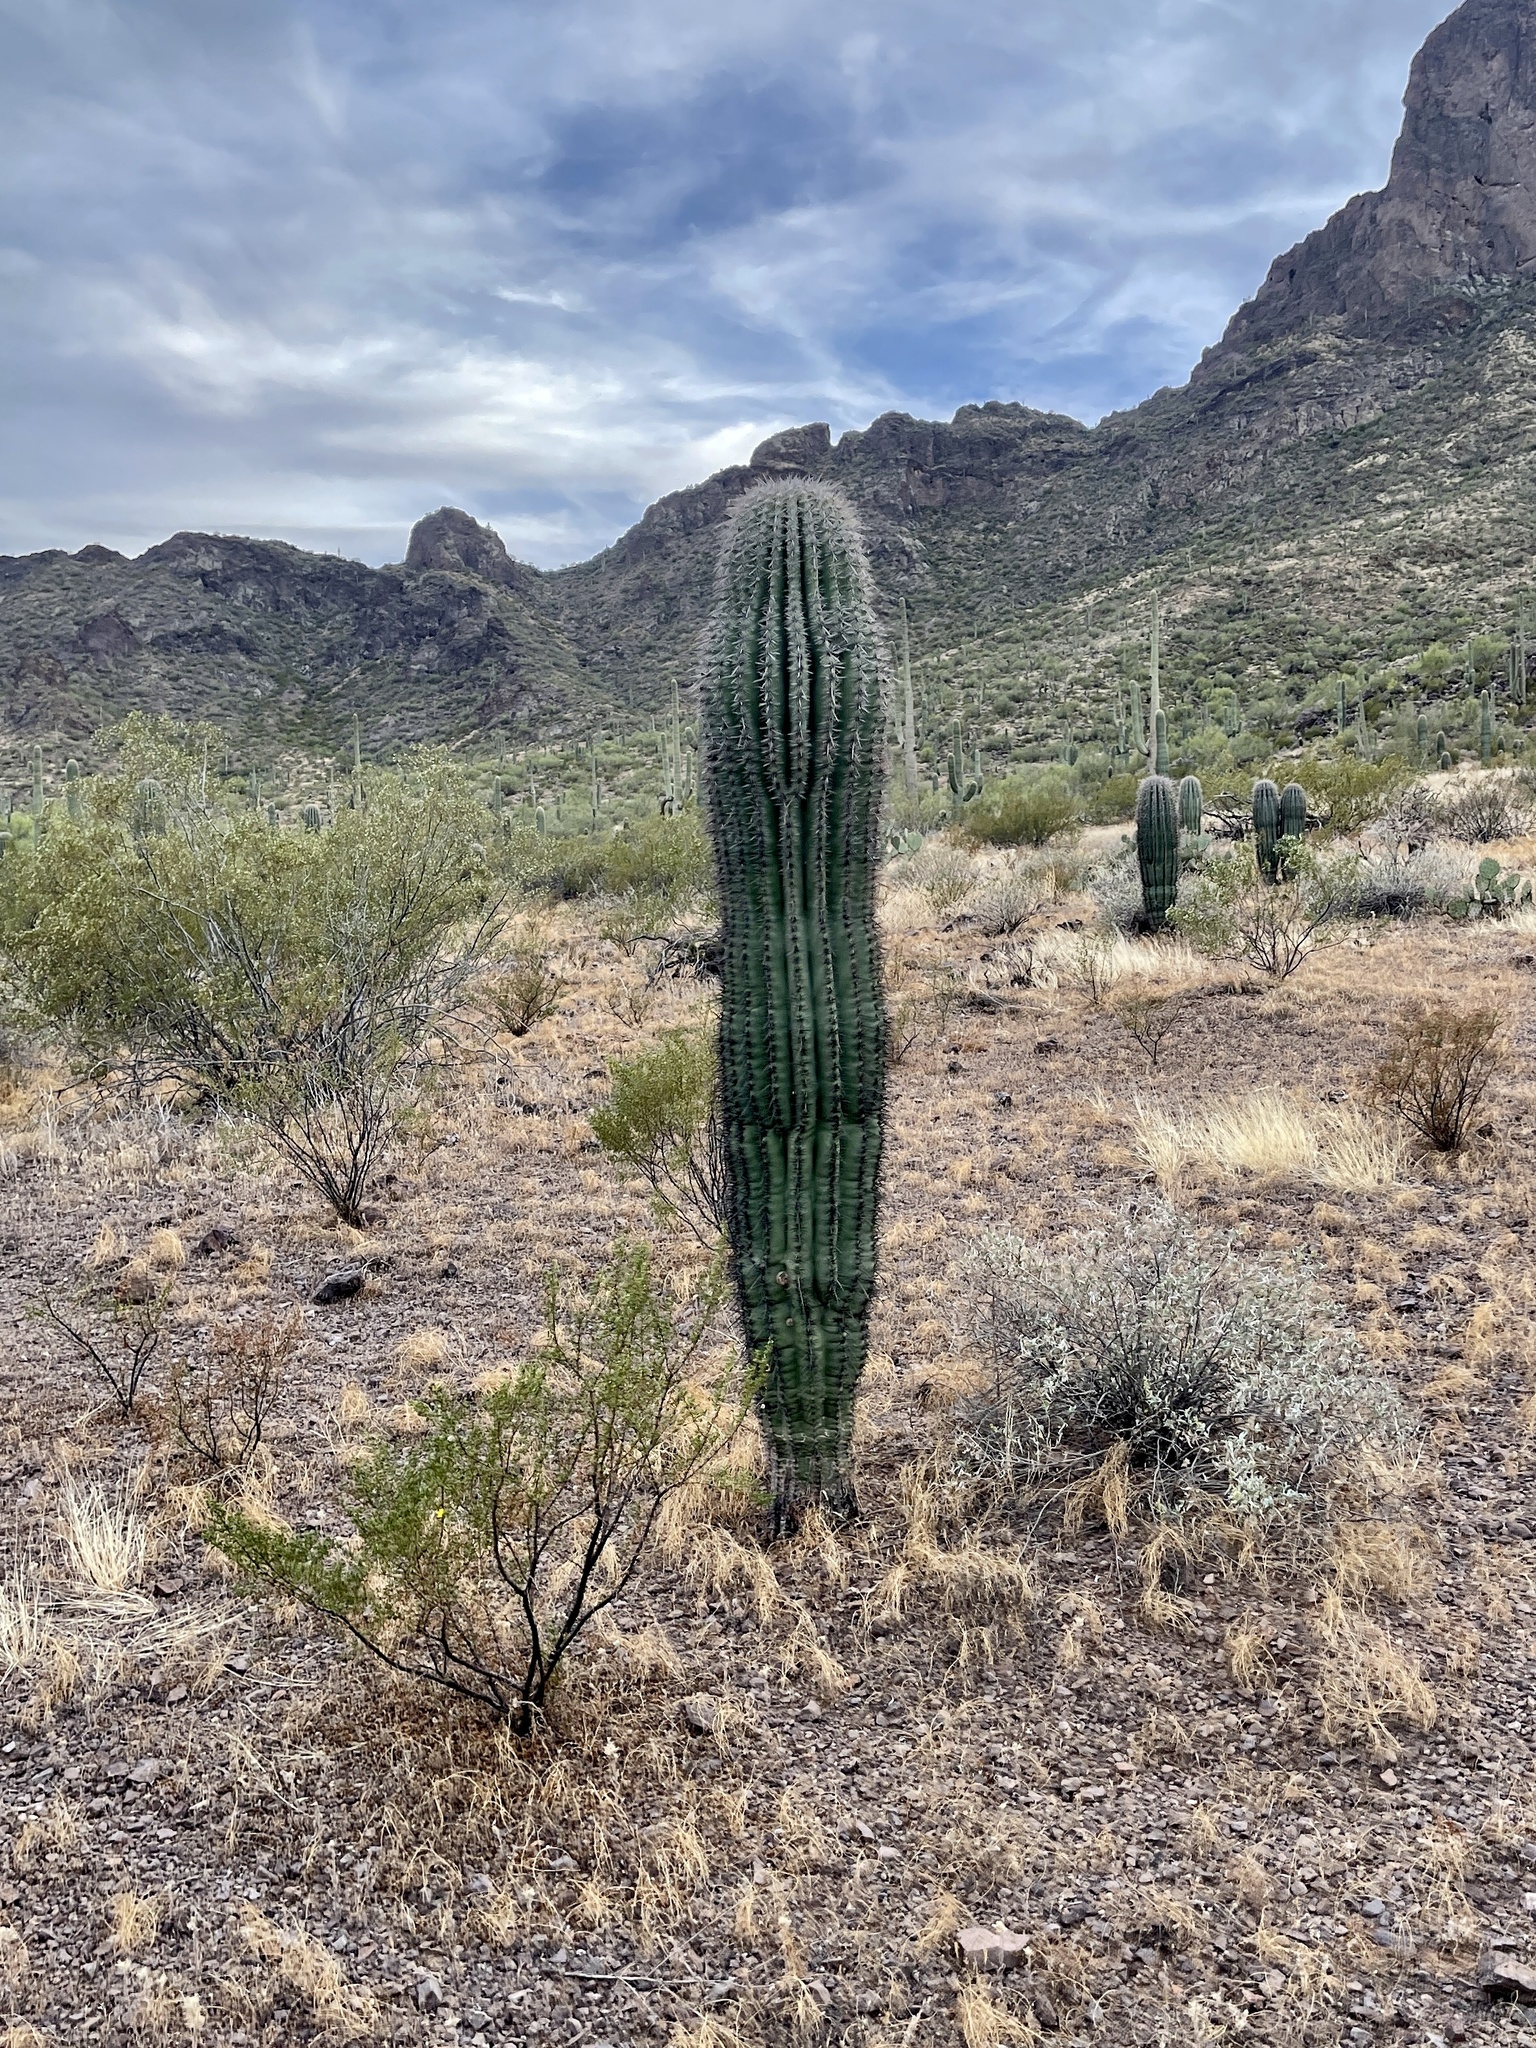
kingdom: Plantae
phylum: Tracheophyta
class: Magnoliopsida
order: Caryophyllales
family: Cactaceae
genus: Carnegiea
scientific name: Carnegiea gigantea
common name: Saguaro
